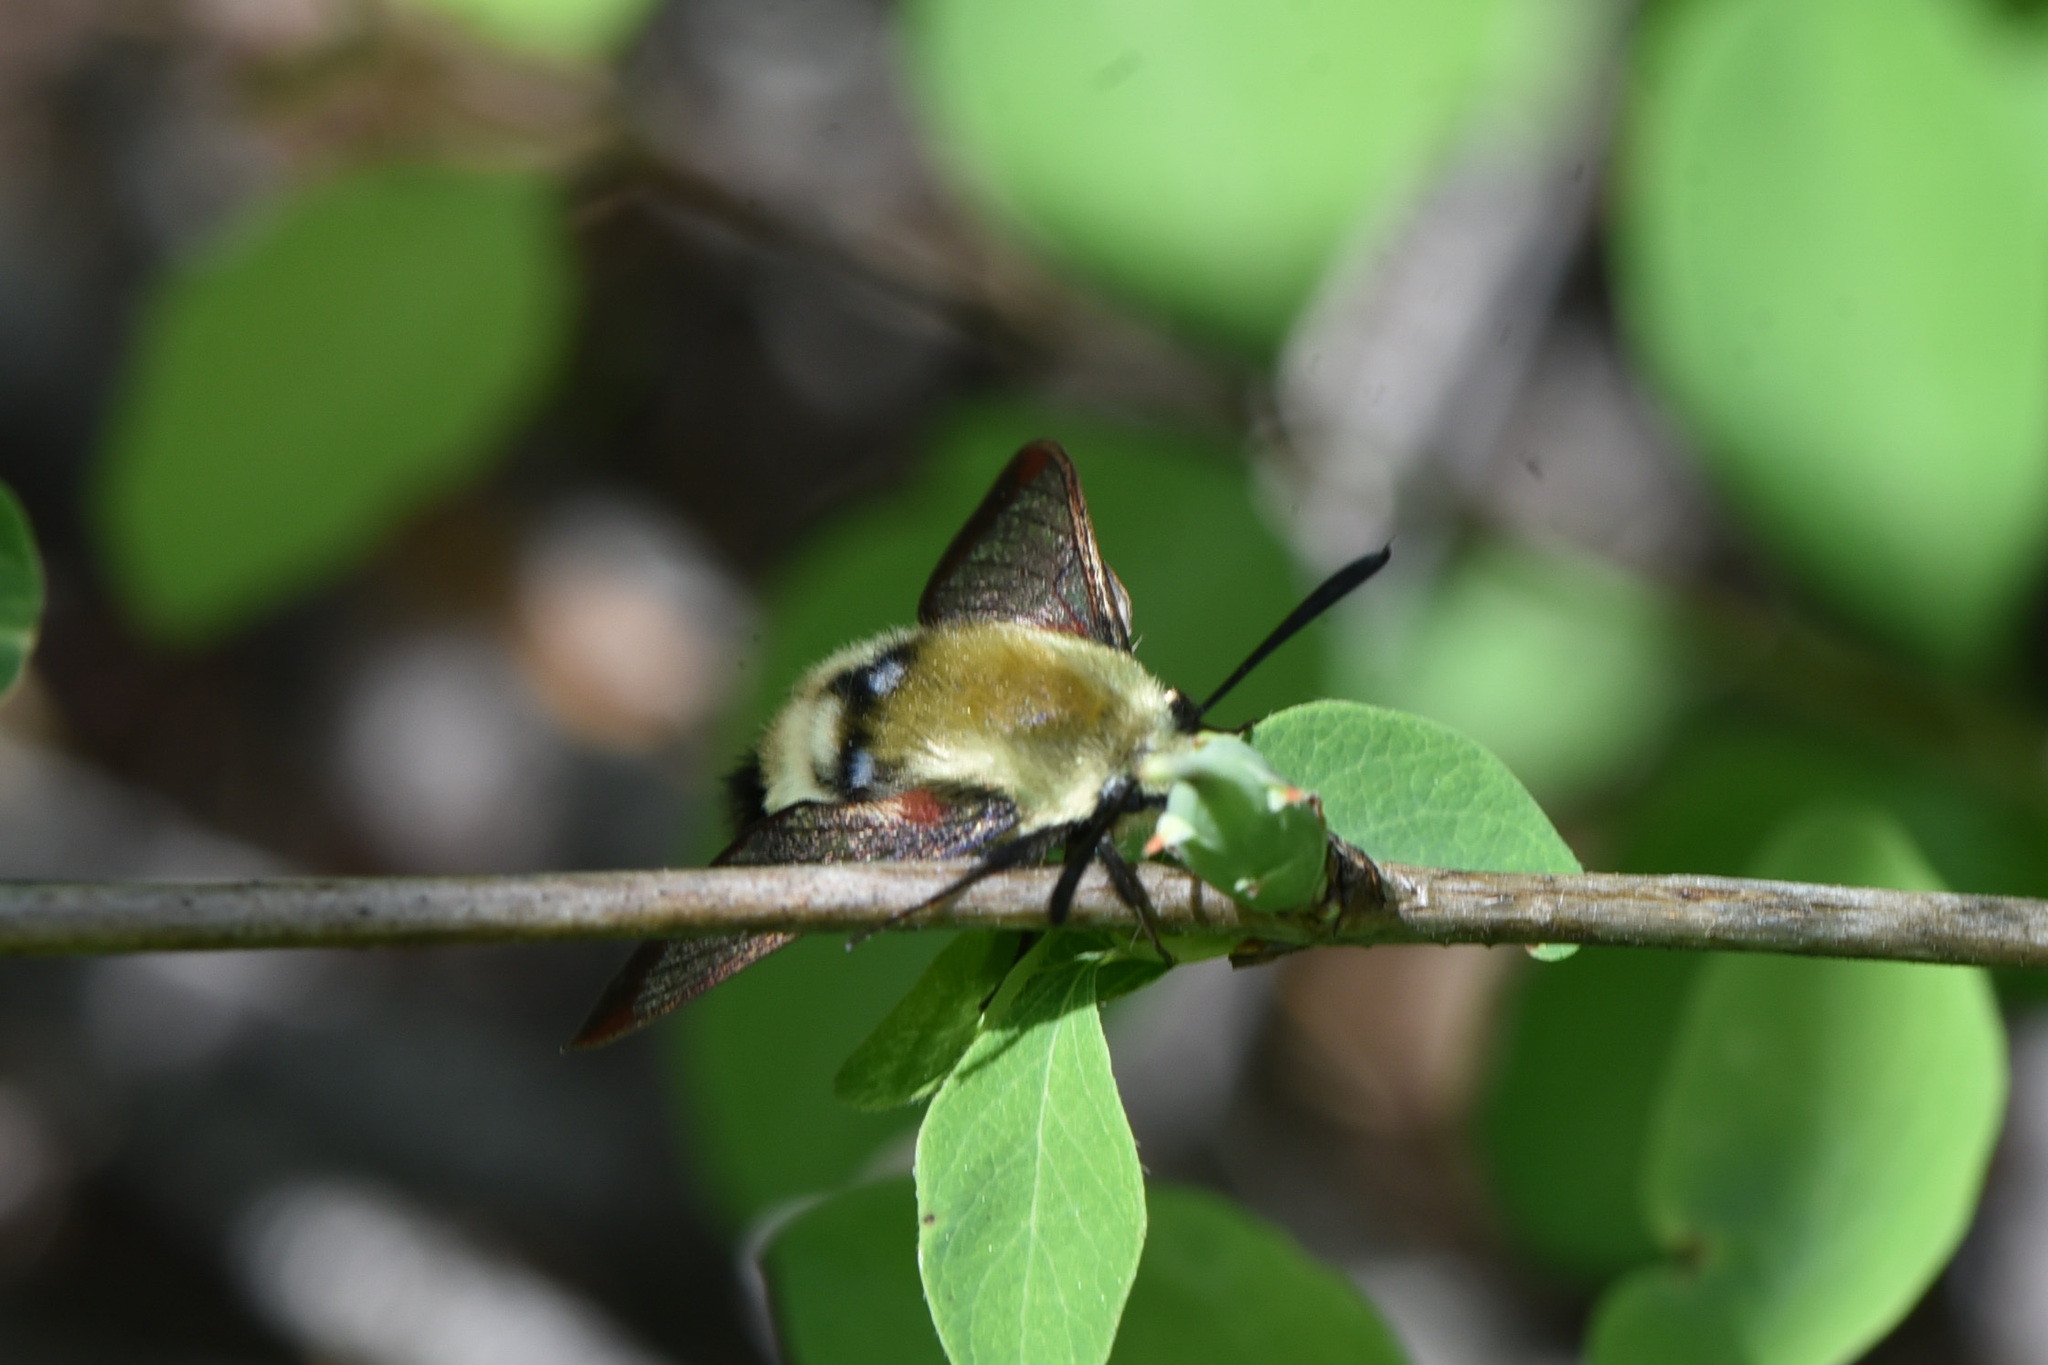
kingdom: Animalia
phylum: Arthropoda
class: Insecta
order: Lepidoptera
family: Sphingidae
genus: Hemaris
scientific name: Hemaris thetis
